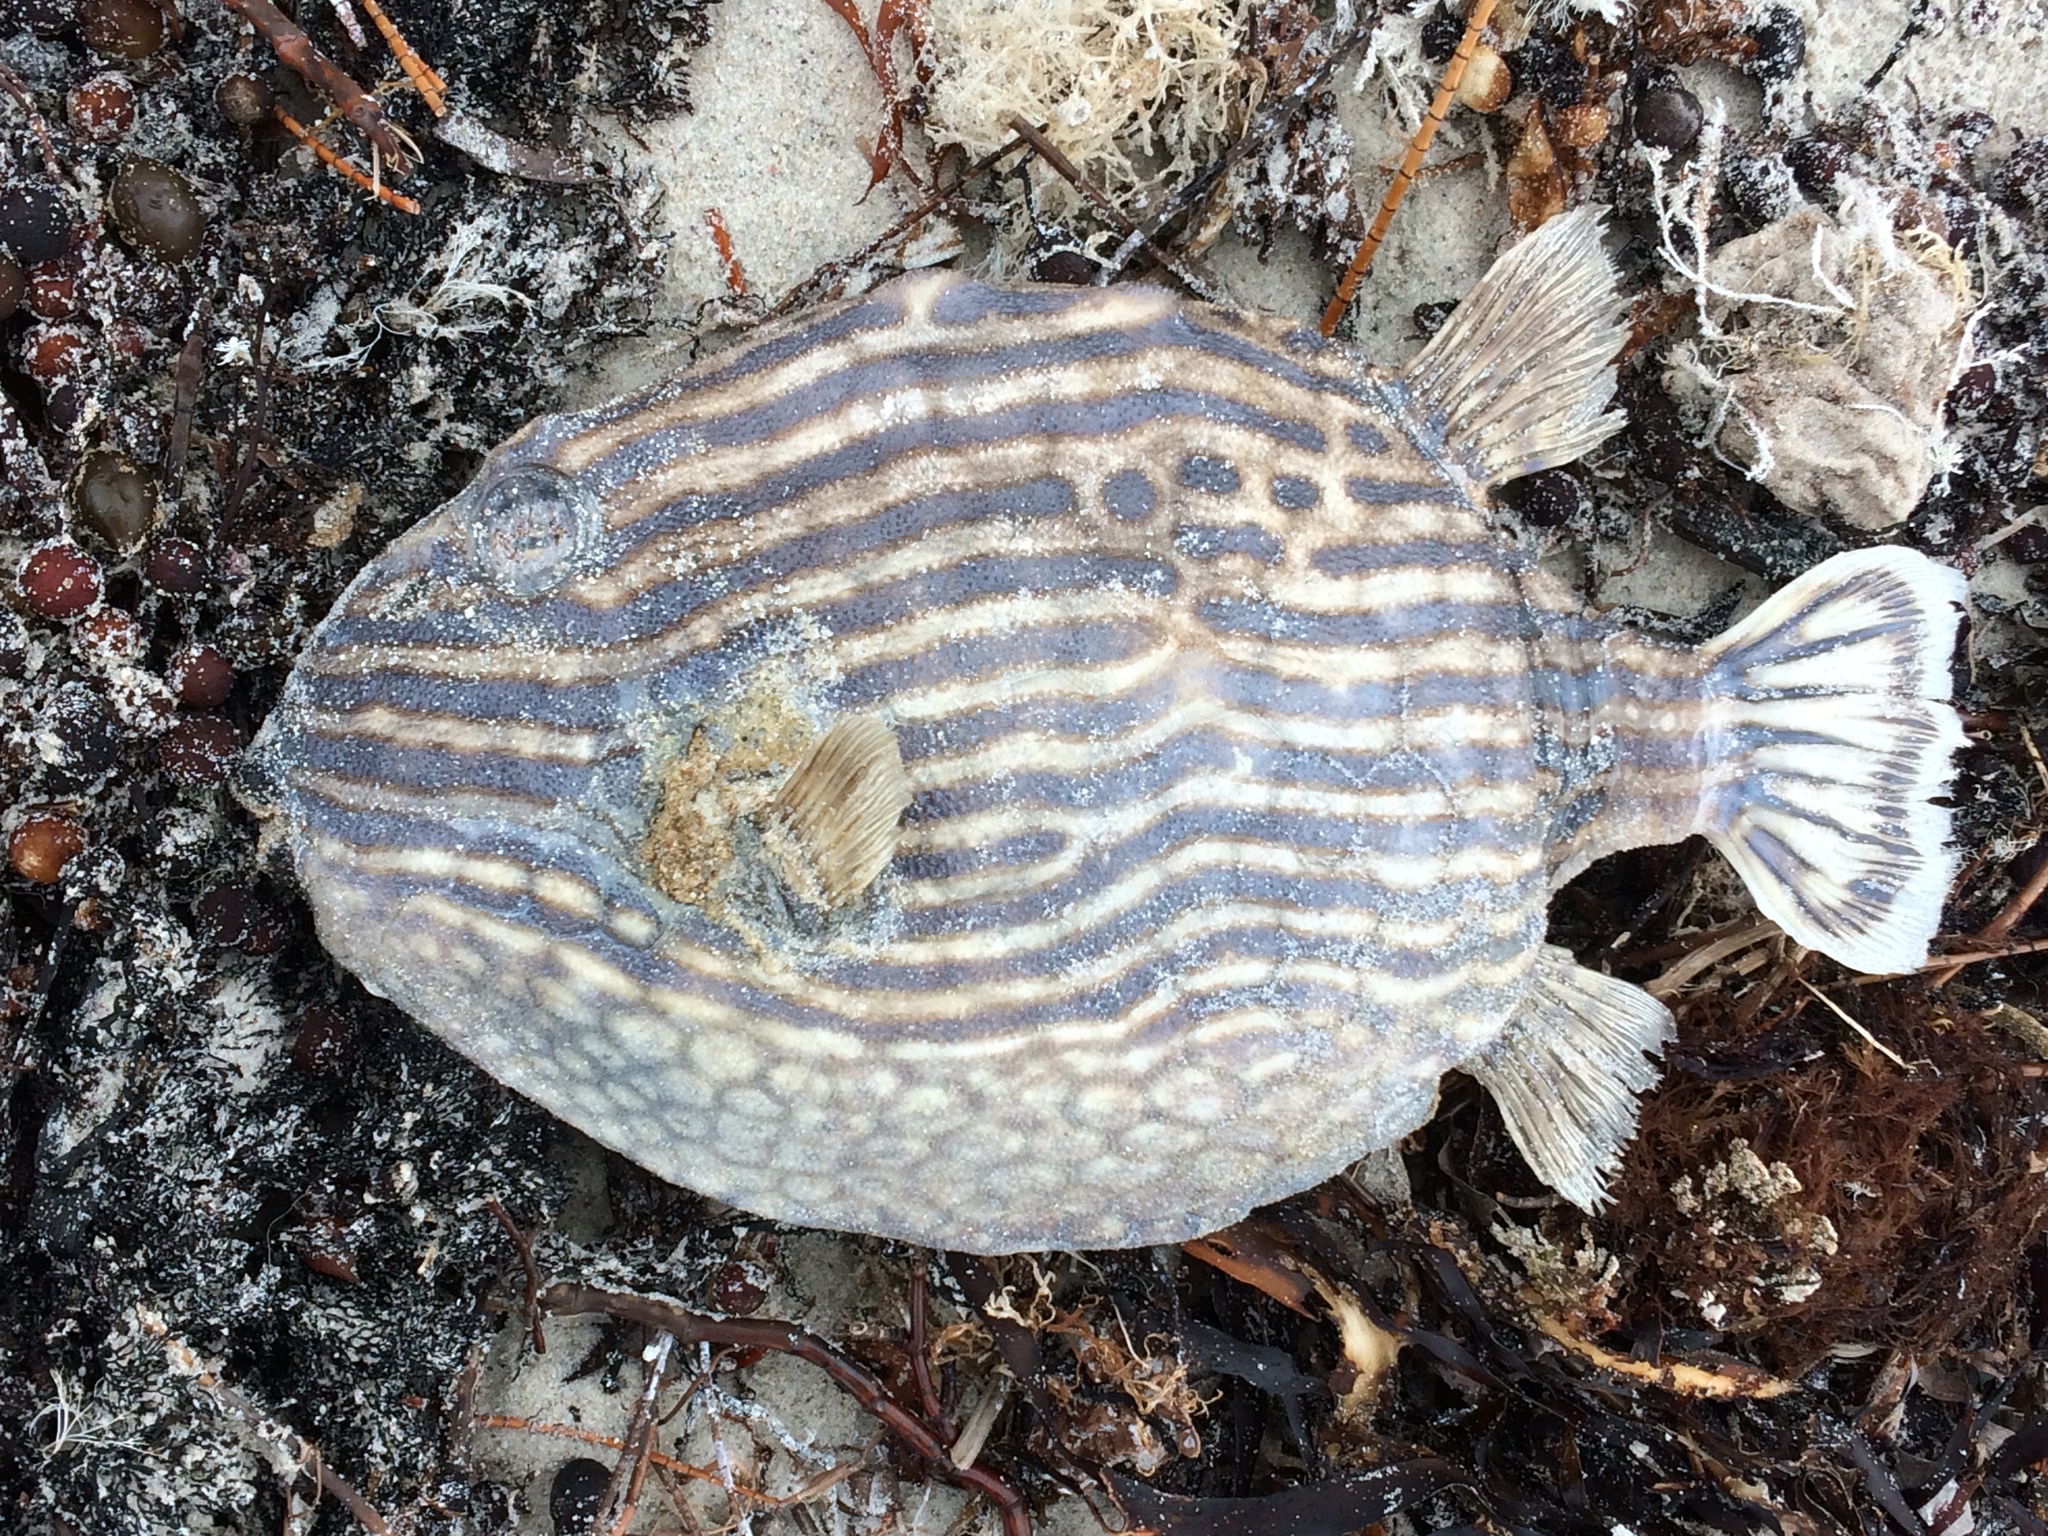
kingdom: Animalia
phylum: Chordata
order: Tetraodontiformes
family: Aracanidae
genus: Aracana
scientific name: Aracana aurita
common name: Shaw’s cowfish
